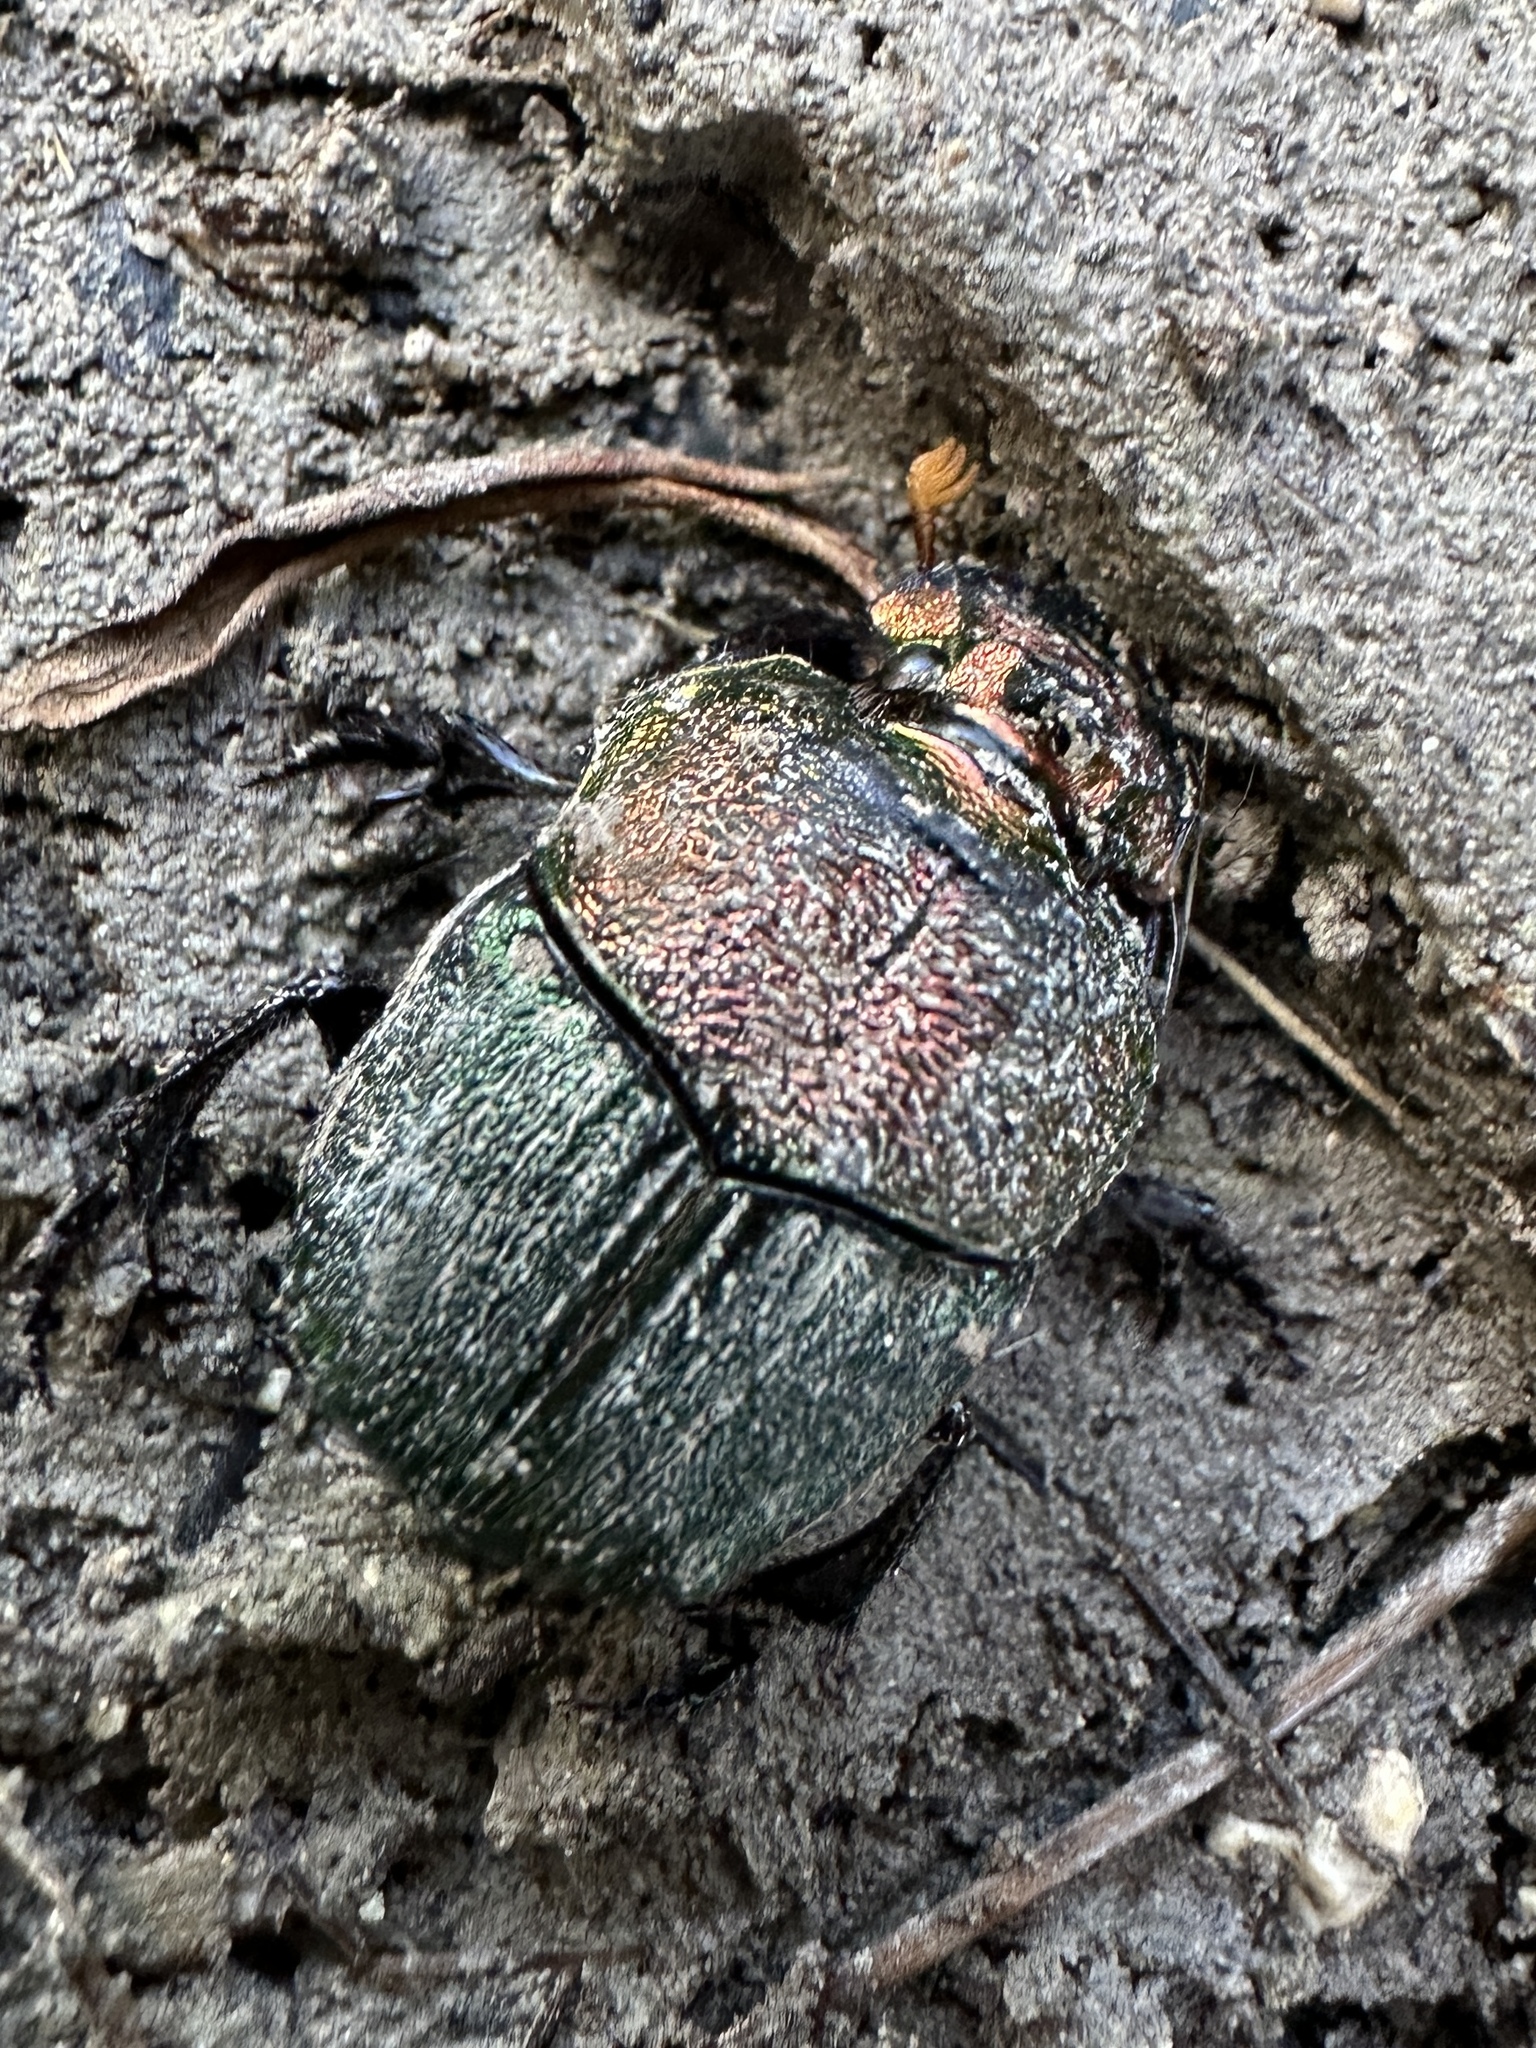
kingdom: Animalia
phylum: Arthropoda
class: Insecta
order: Coleoptera
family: Scarabaeidae
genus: Phanaeus
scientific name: Phanaeus vindex
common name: Rainbow scarab
